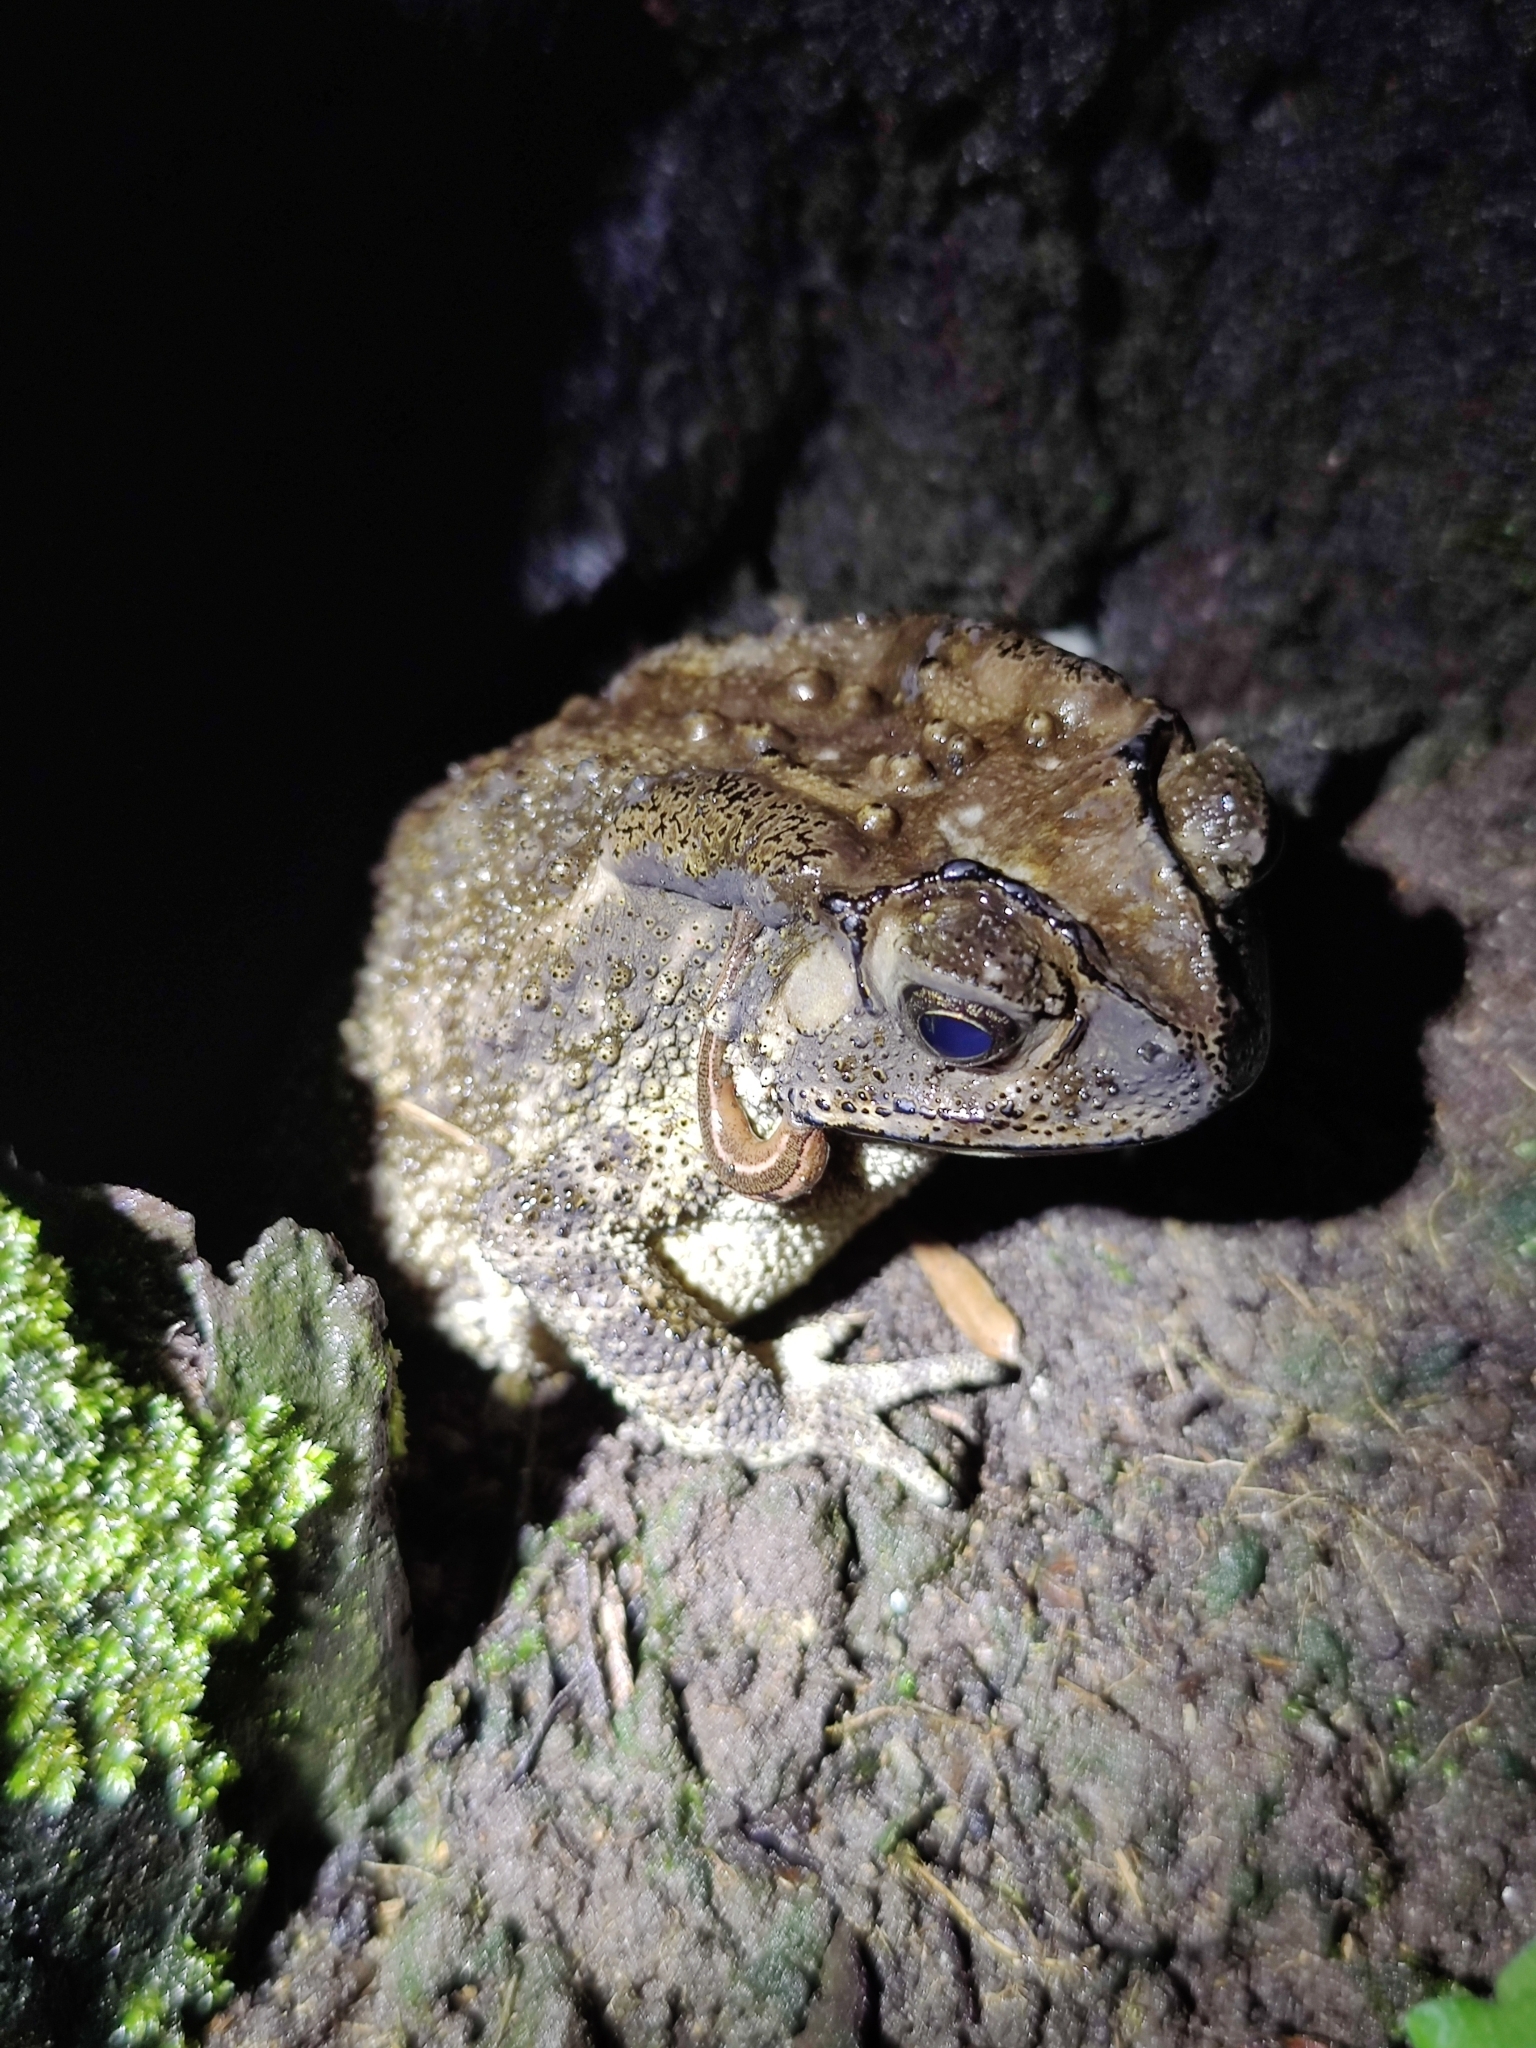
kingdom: Animalia
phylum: Chordata
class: Amphibia
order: Anura
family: Bufonidae
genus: Duttaphrynus
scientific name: Duttaphrynus melanostictus
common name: Common sunda toad
